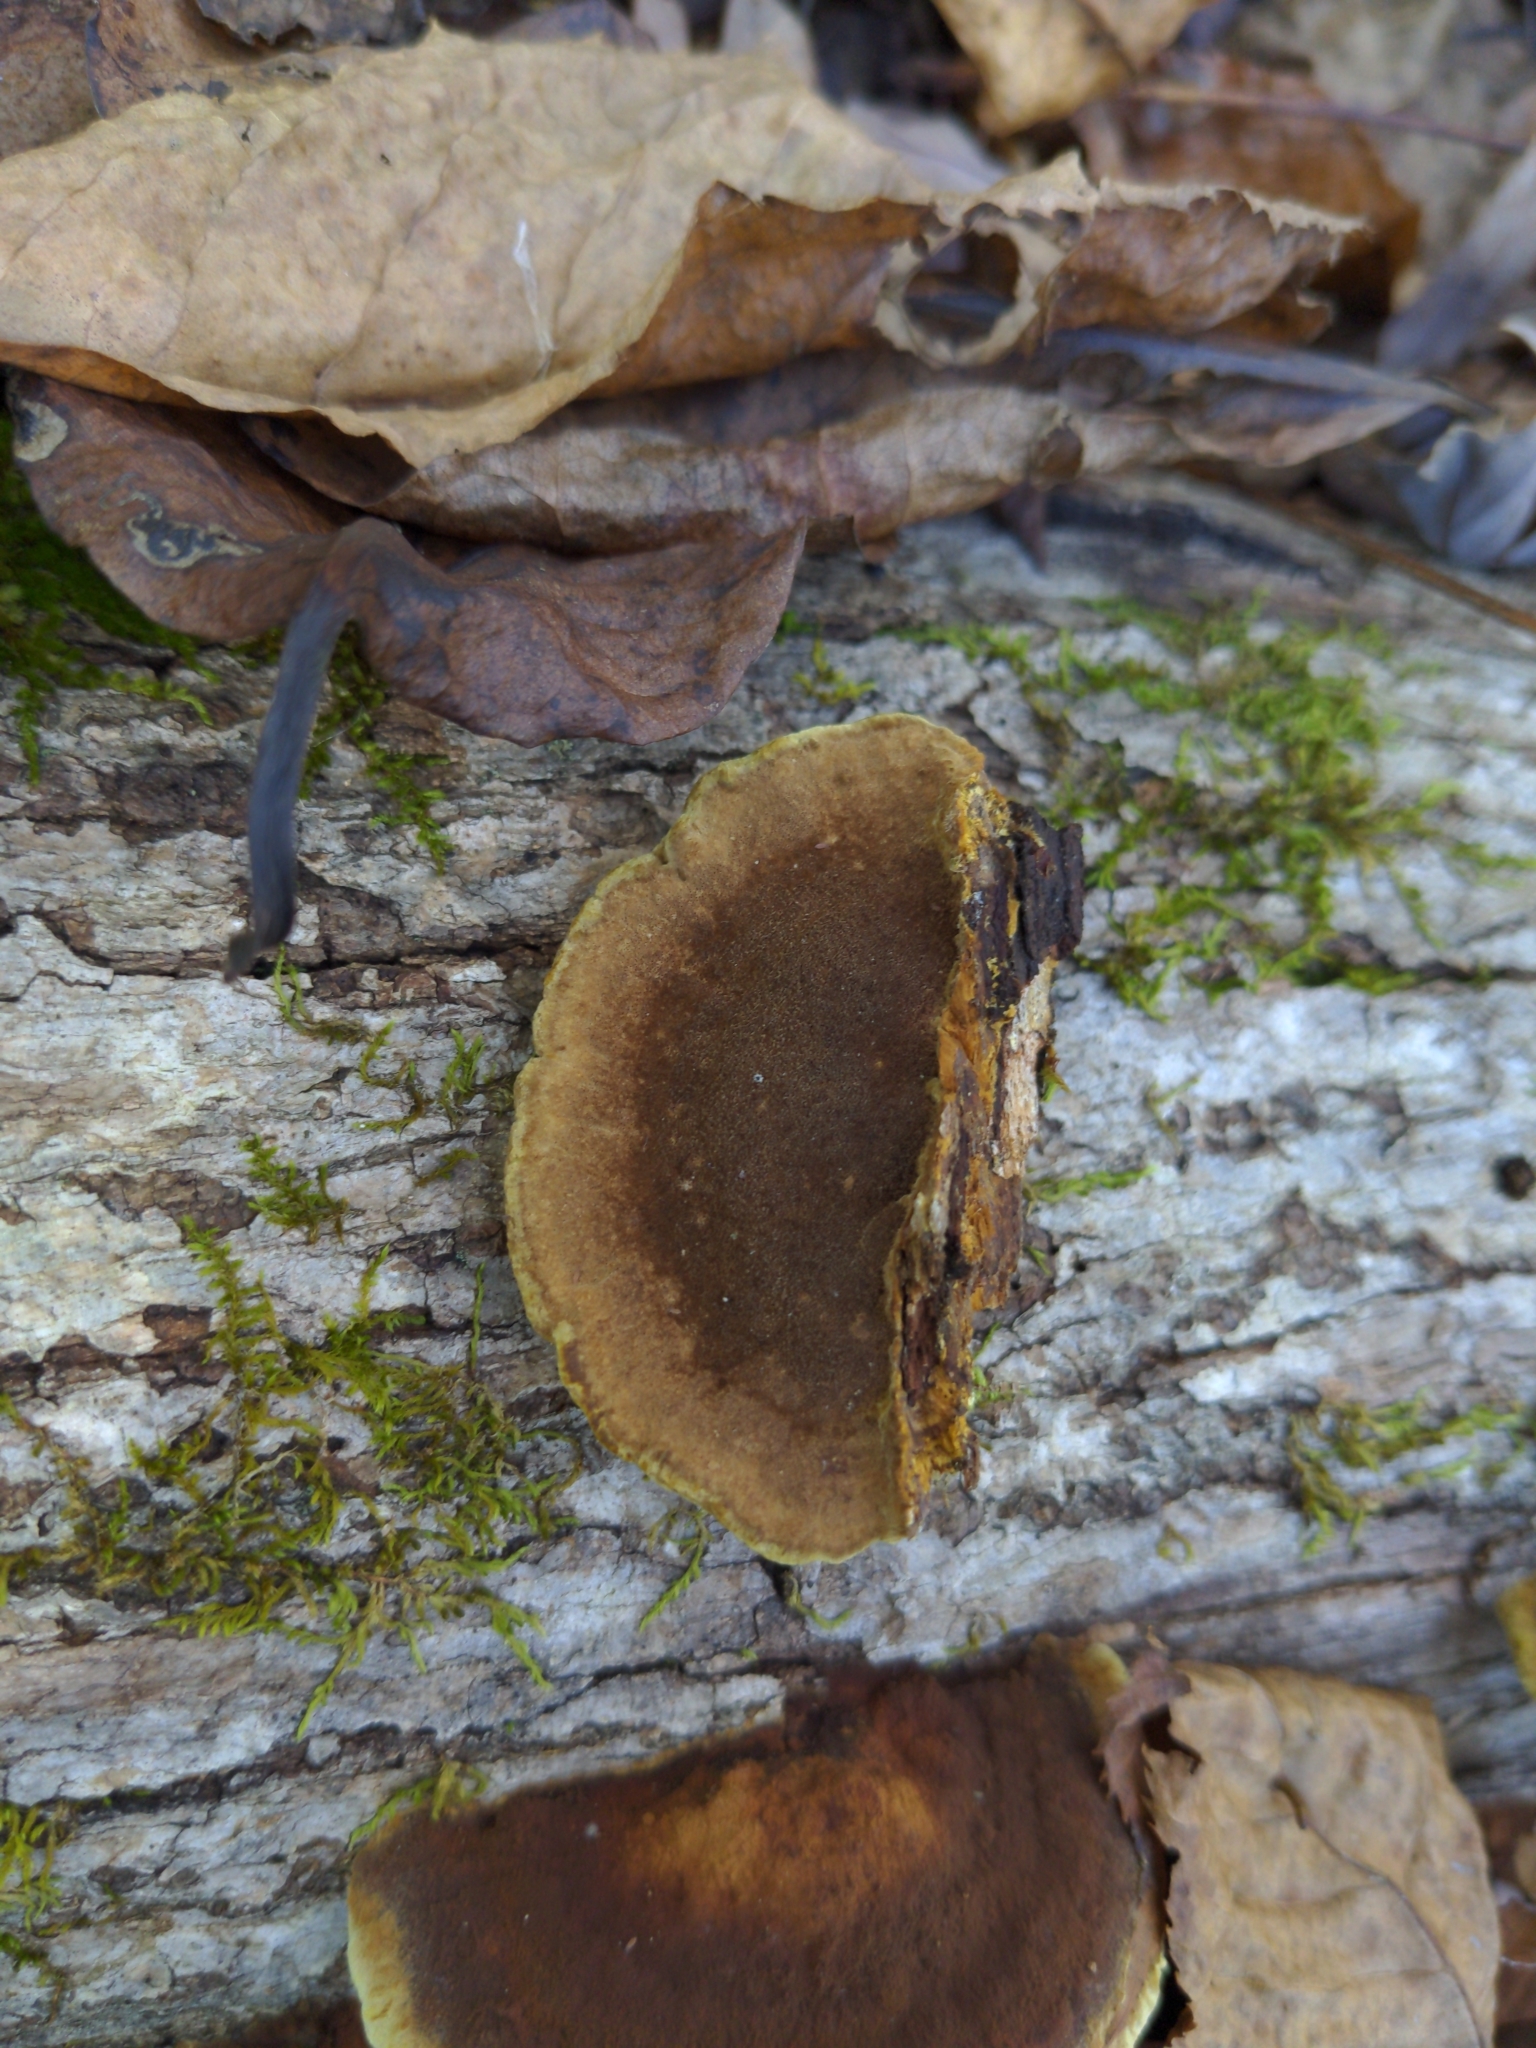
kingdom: Fungi
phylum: Basidiomycota
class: Agaricomycetes
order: Hymenochaetales
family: Hymenochaetaceae
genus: Phellinus
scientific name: Phellinus gilvus
